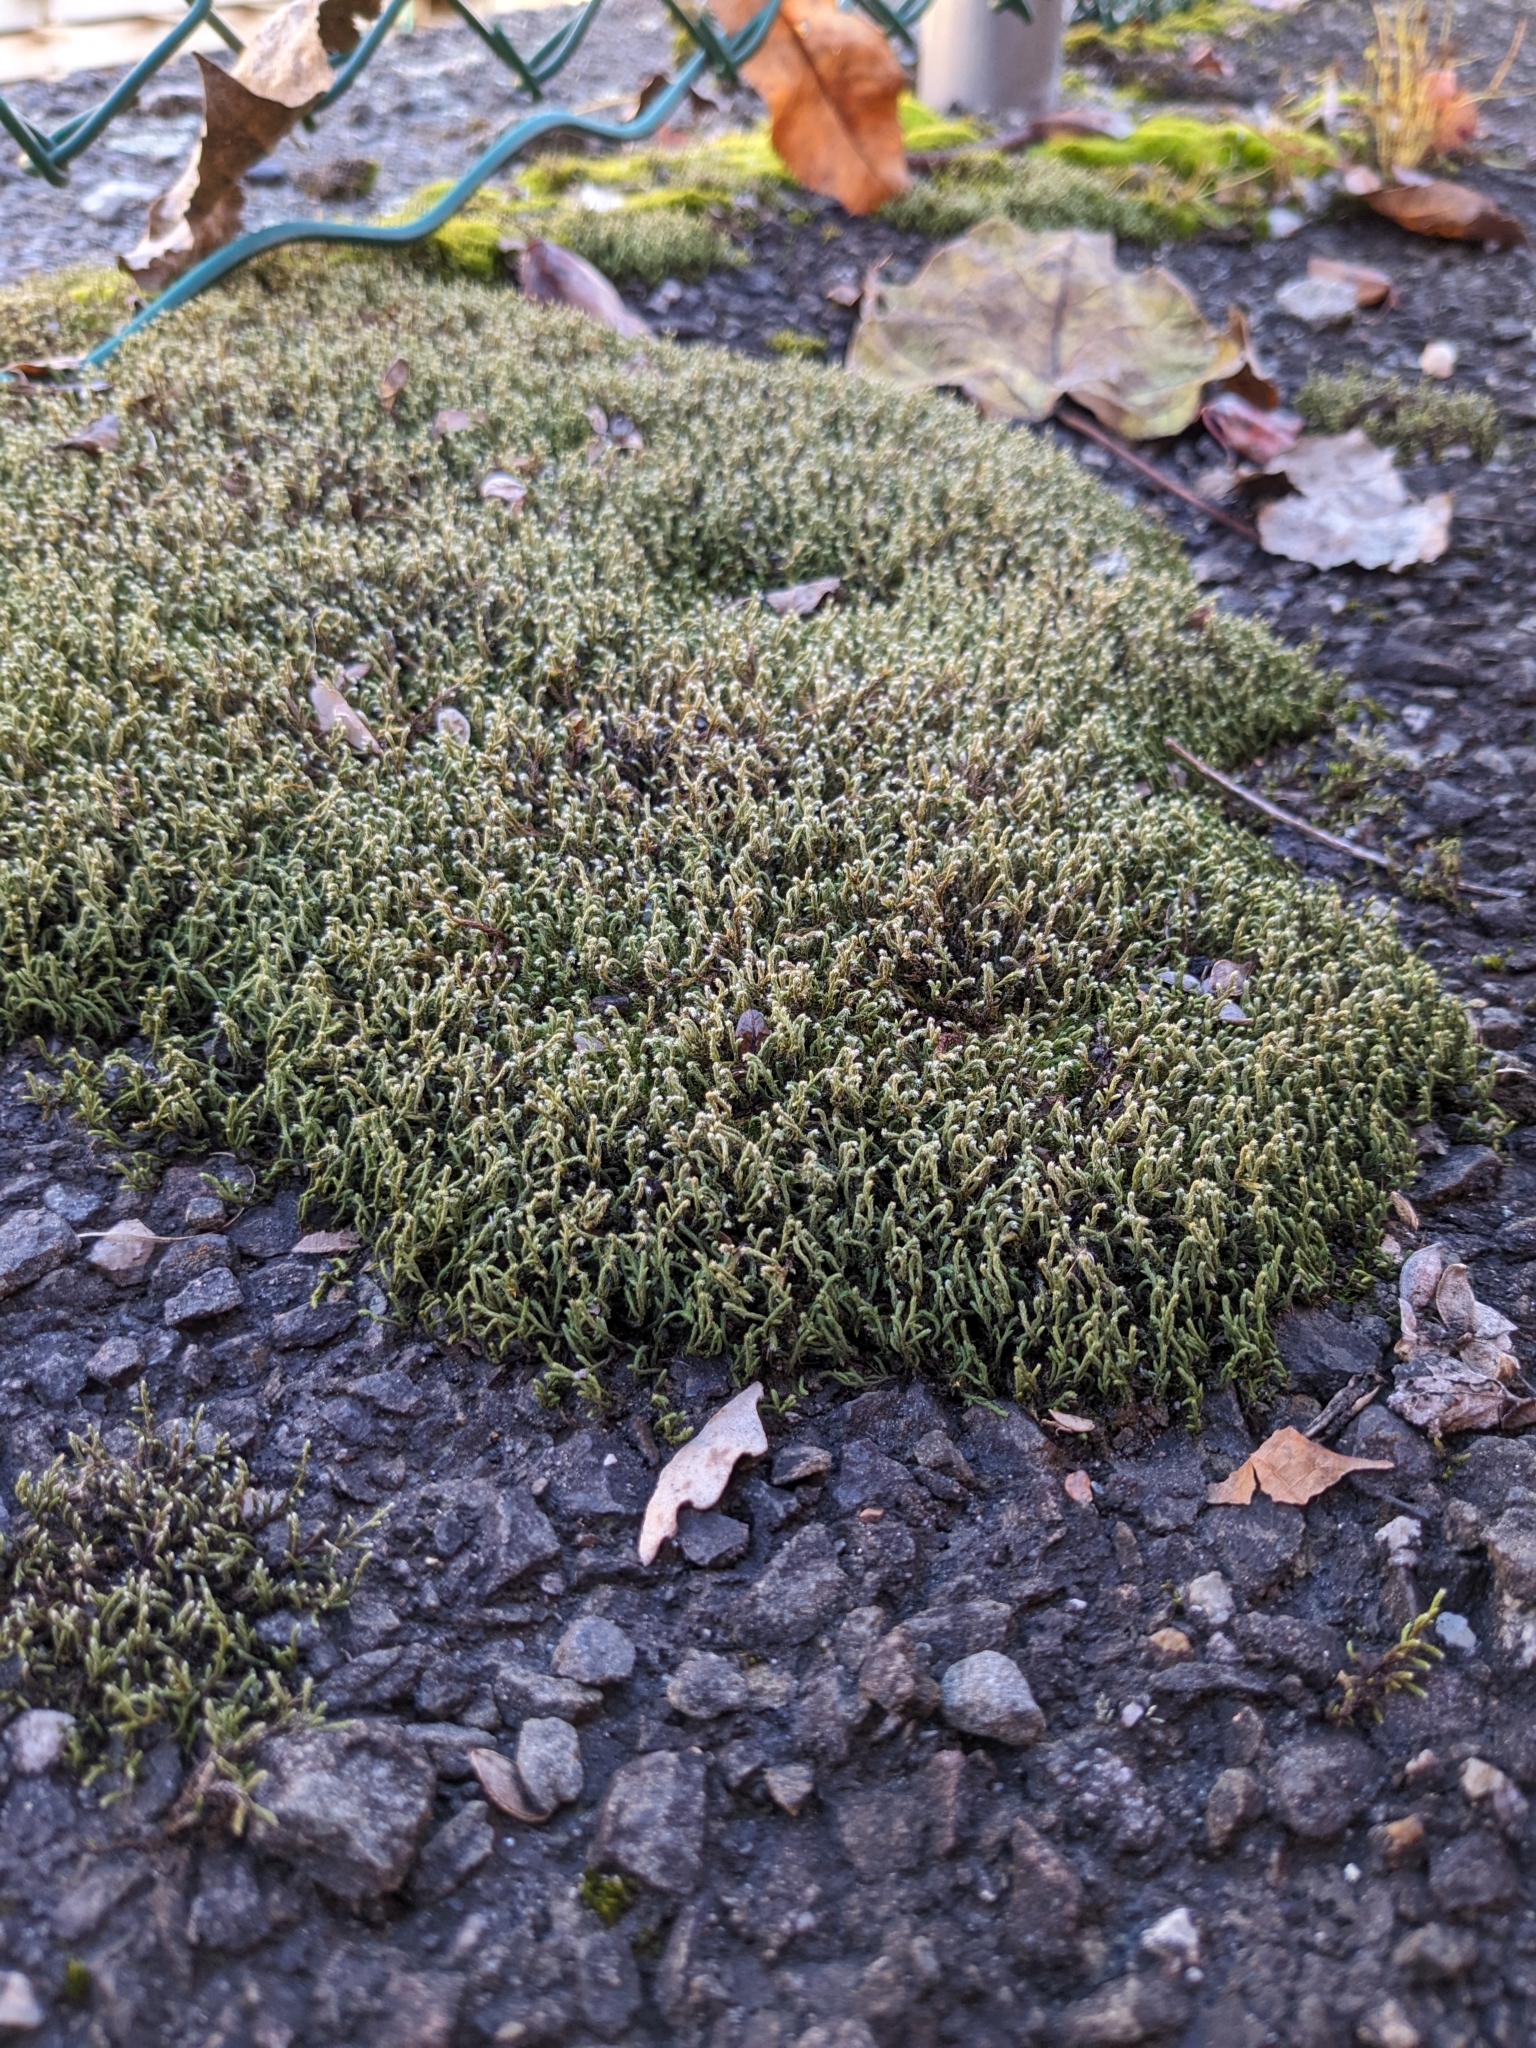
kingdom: Plantae
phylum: Bryophyta
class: Bryopsida
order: Hedwigiales
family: Hedwigiaceae
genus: Hedwigia
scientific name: Hedwigia ciliata
